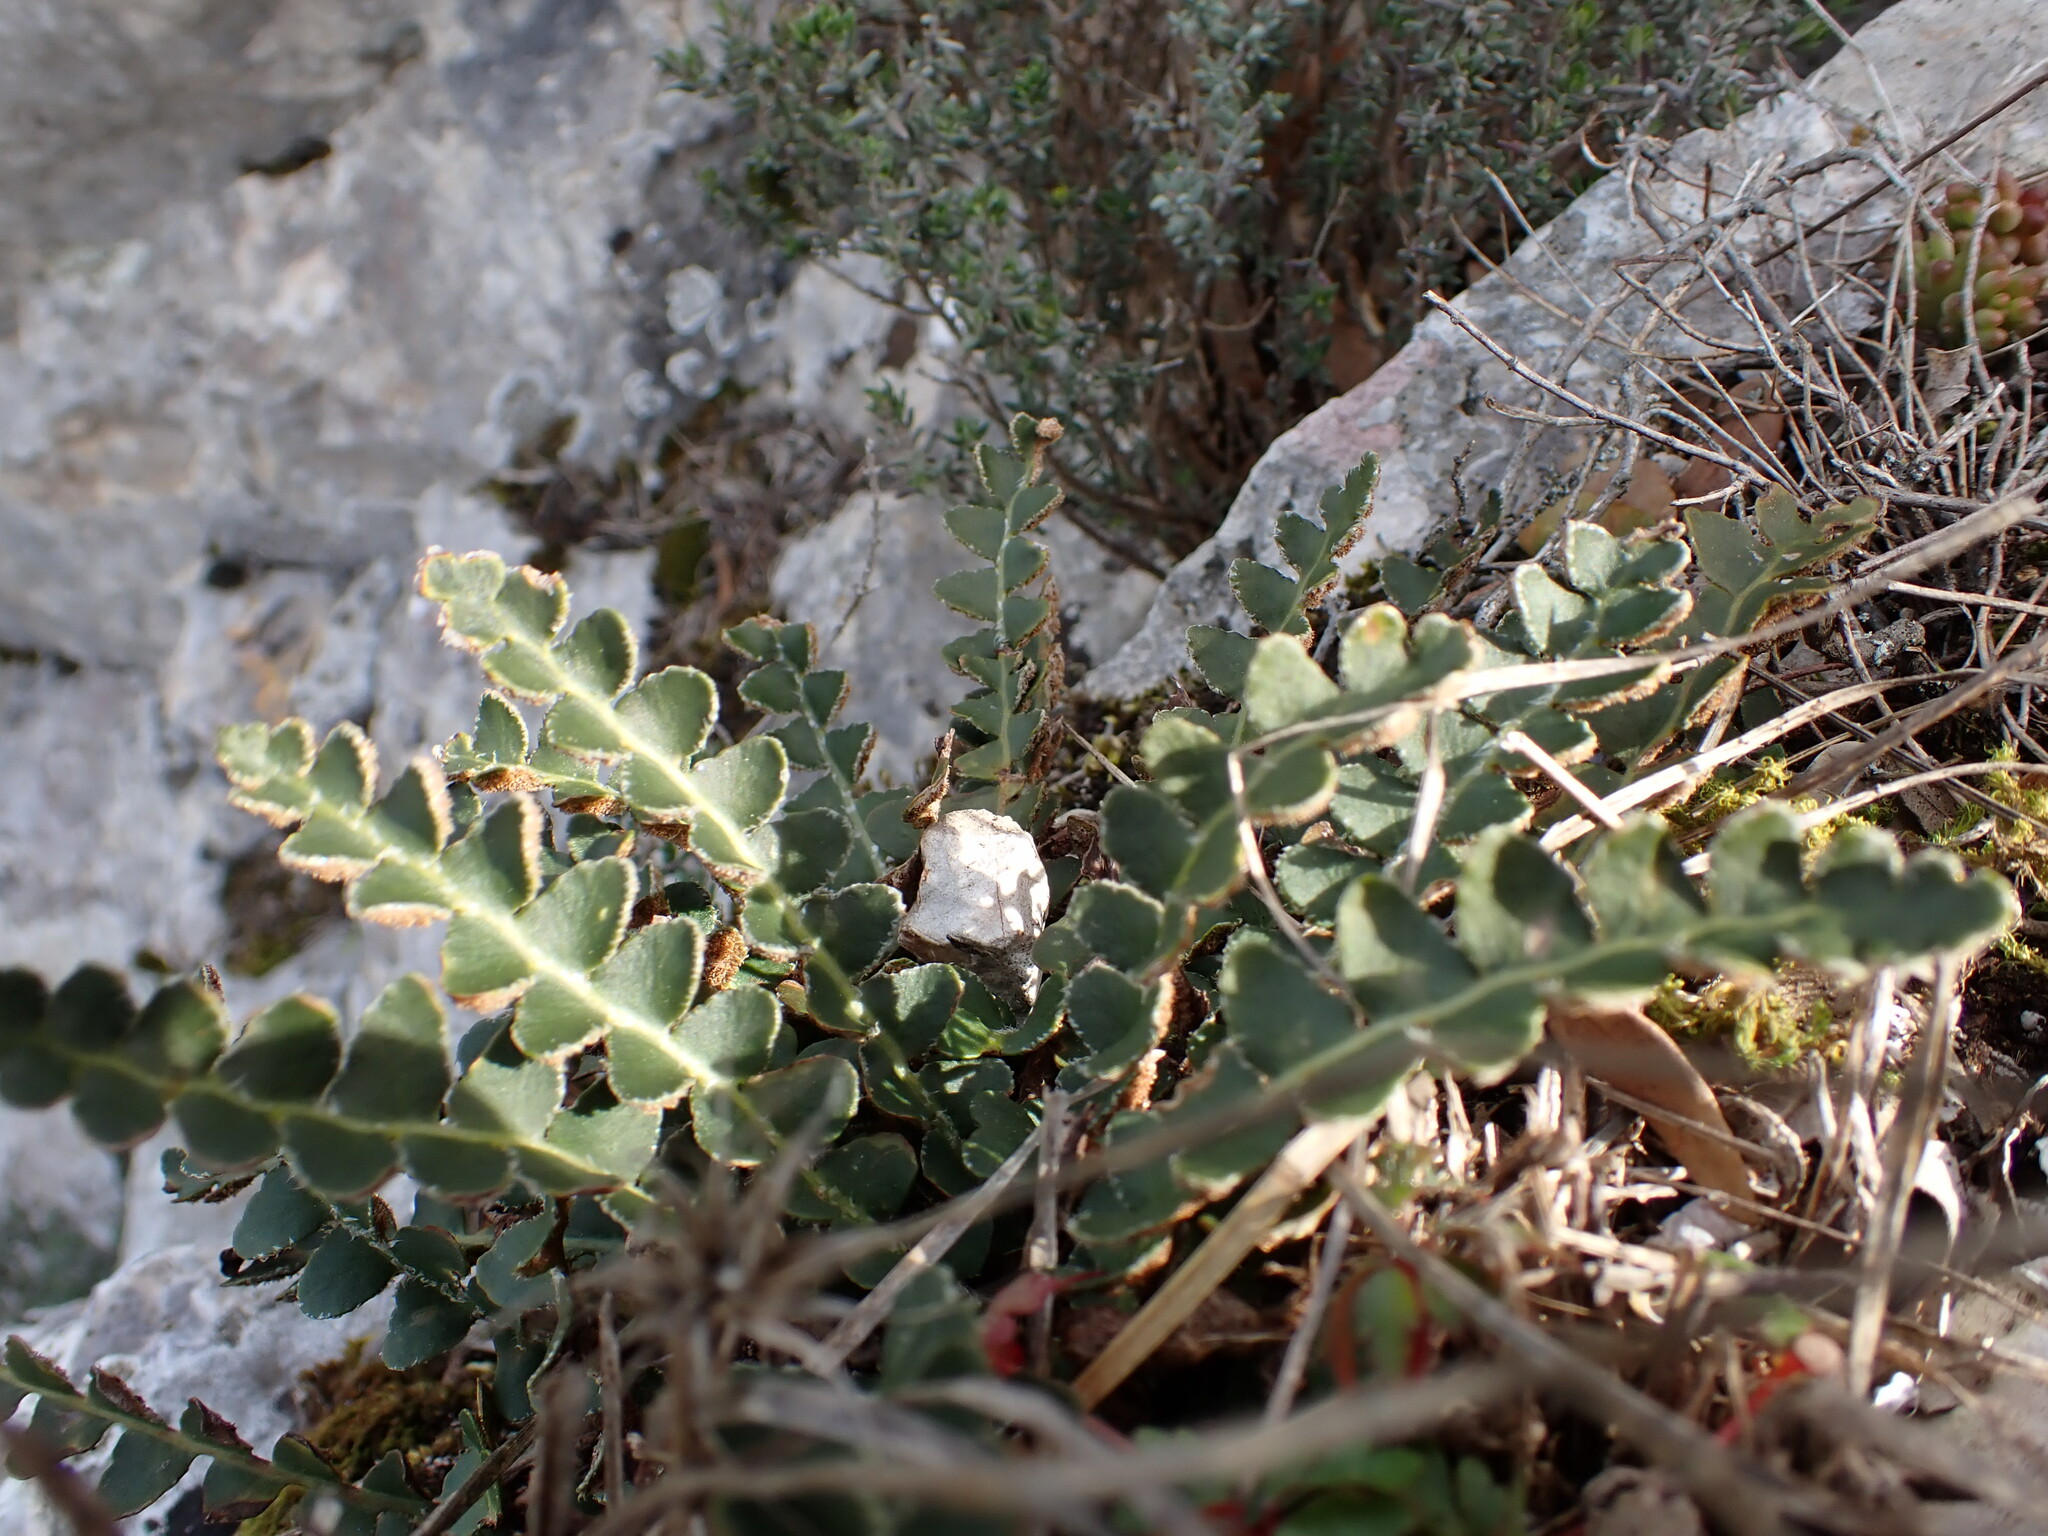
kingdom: Plantae
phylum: Tracheophyta
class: Polypodiopsida
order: Polypodiales
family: Aspleniaceae
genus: Asplenium
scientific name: Asplenium ceterach
